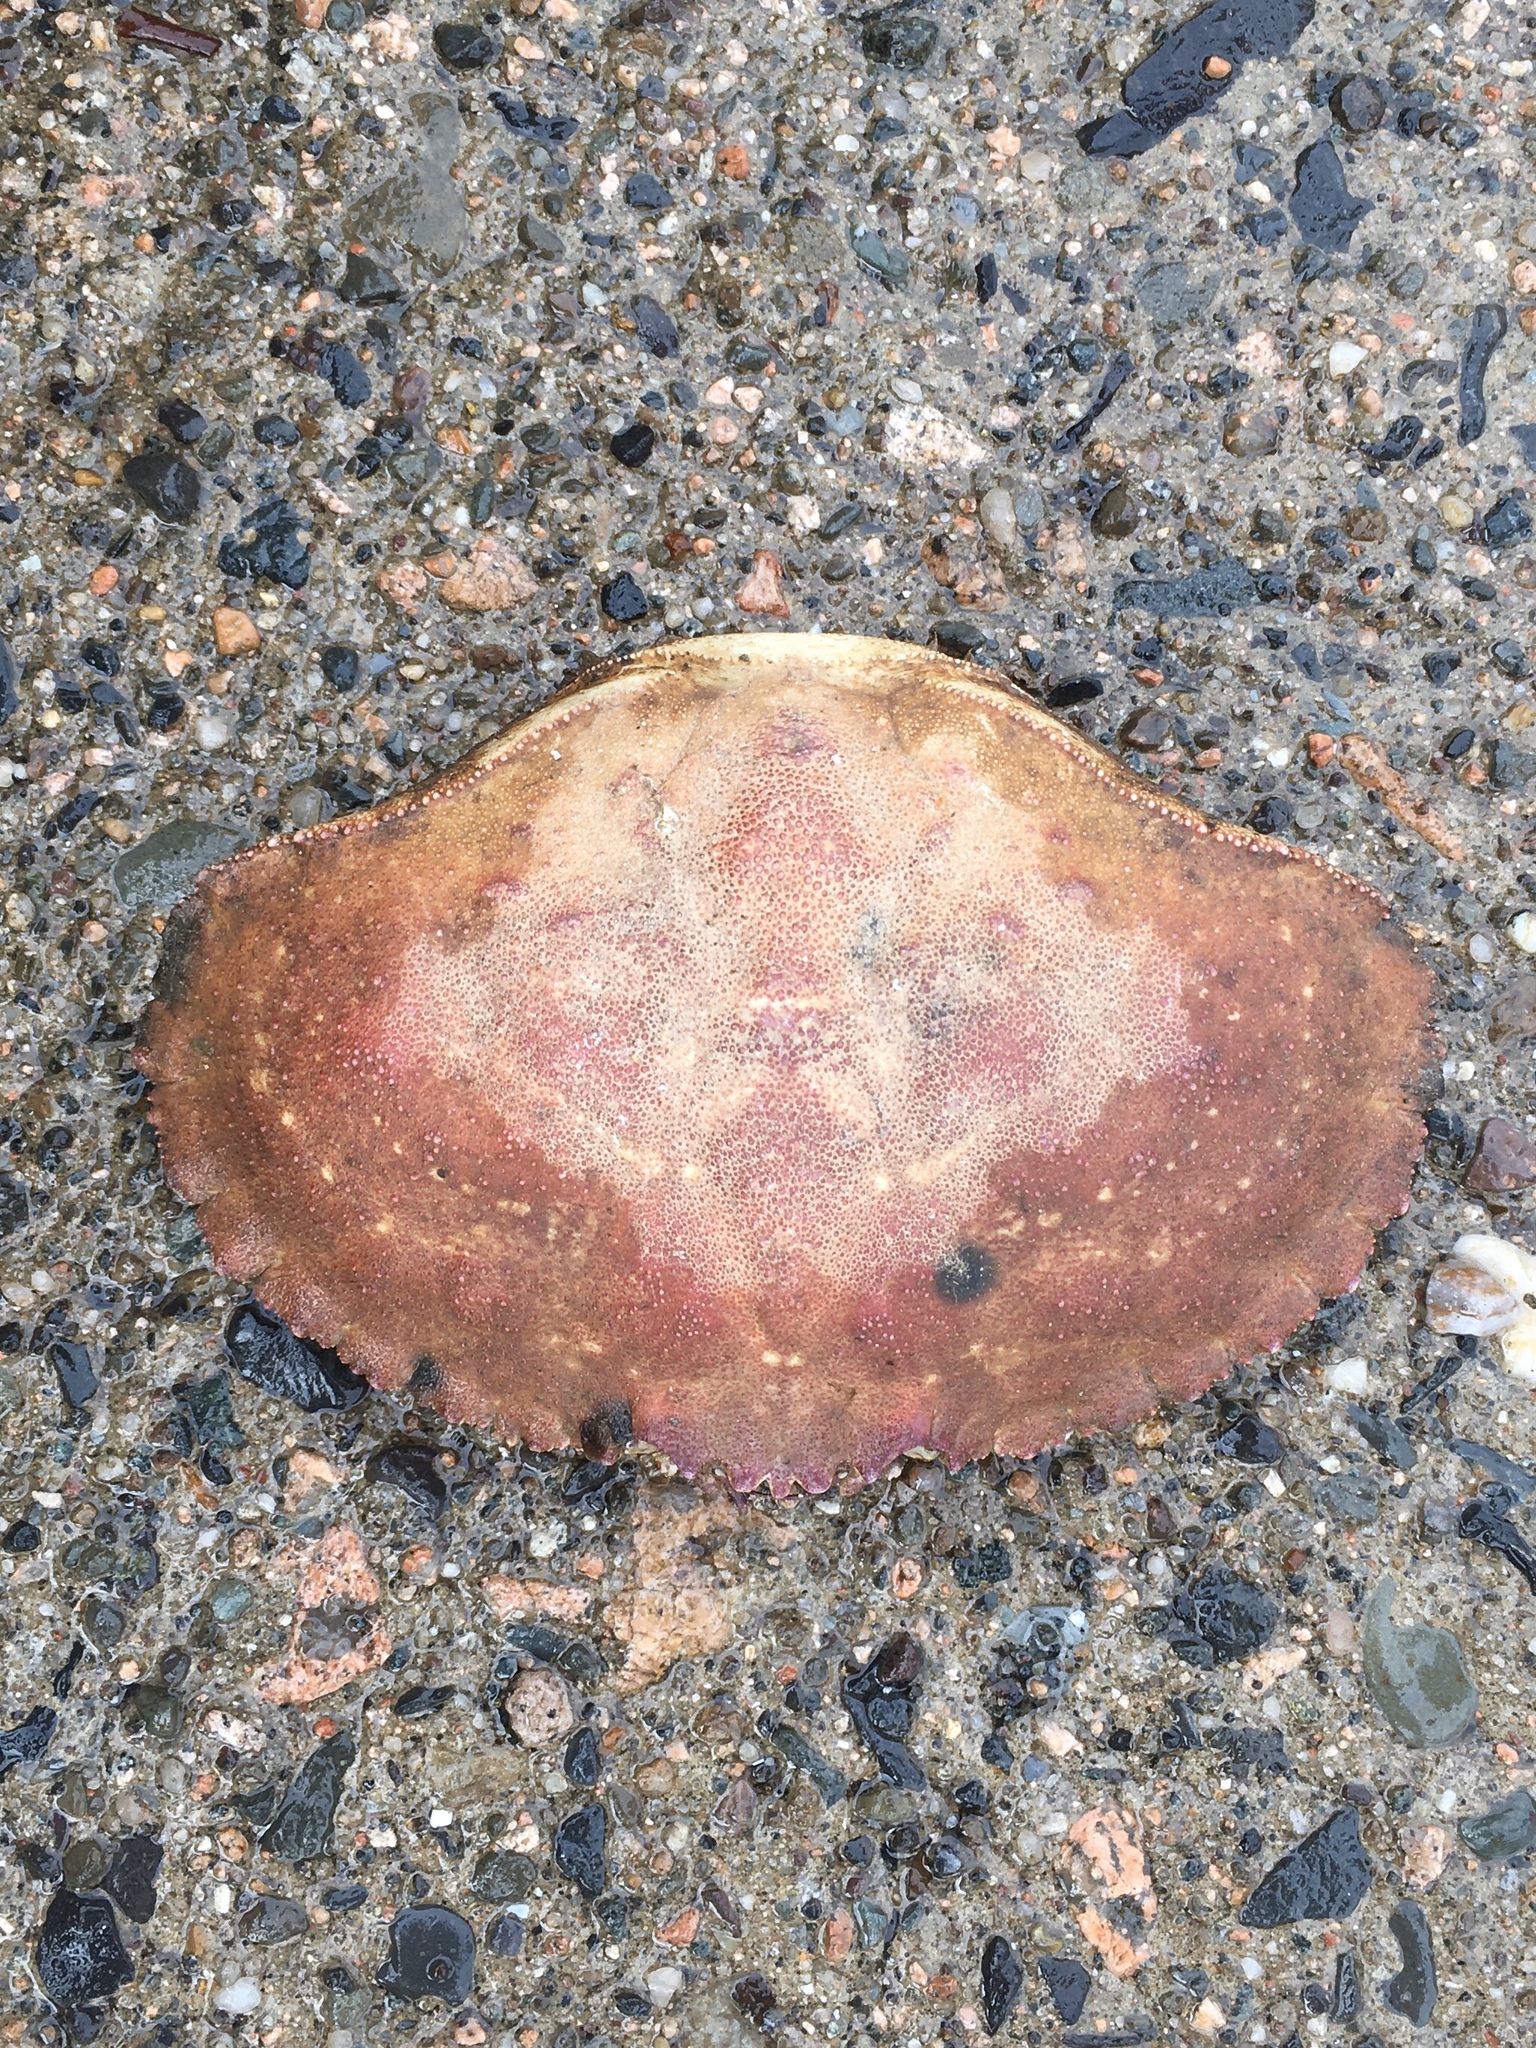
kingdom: Animalia
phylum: Arthropoda
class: Malacostraca
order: Decapoda
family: Cancridae
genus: Cancer
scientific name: Cancer borealis
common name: Jonah crab
